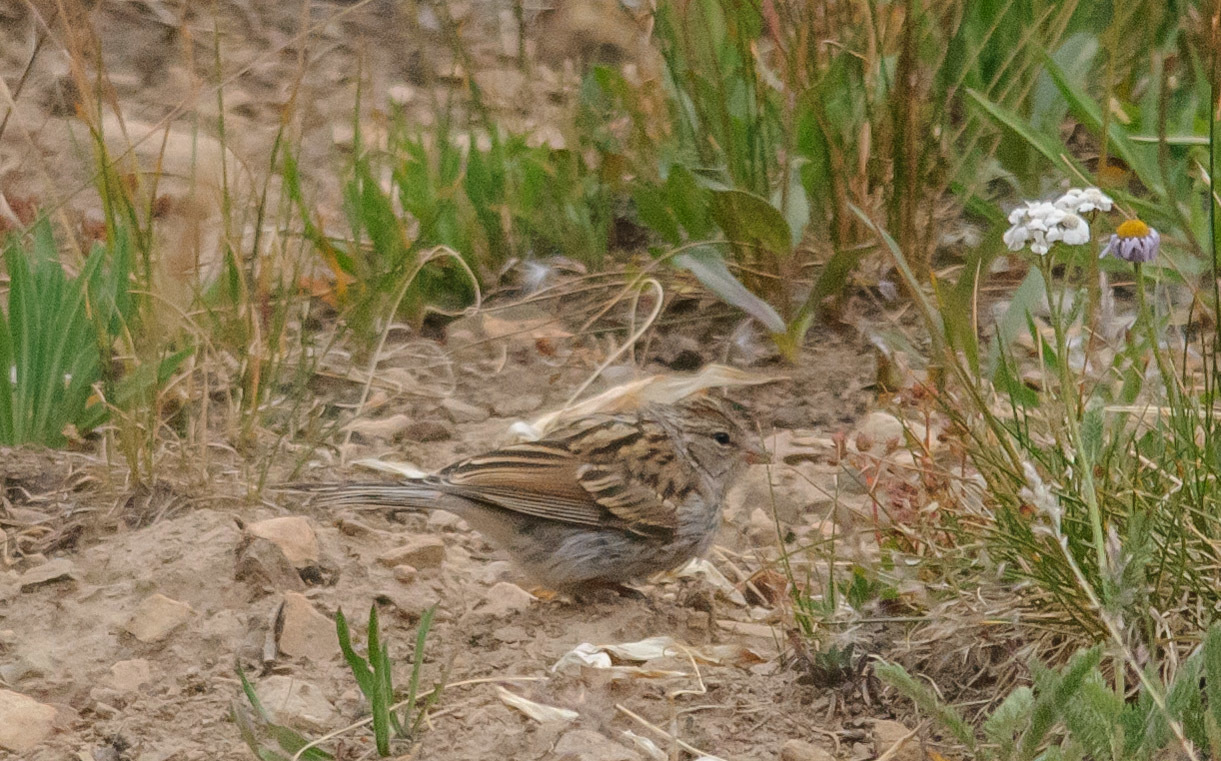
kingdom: Animalia
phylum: Chordata
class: Aves
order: Passeriformes
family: Passerellidae
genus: Spizella
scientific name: Spizella passerina
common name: Chipping sparrow
